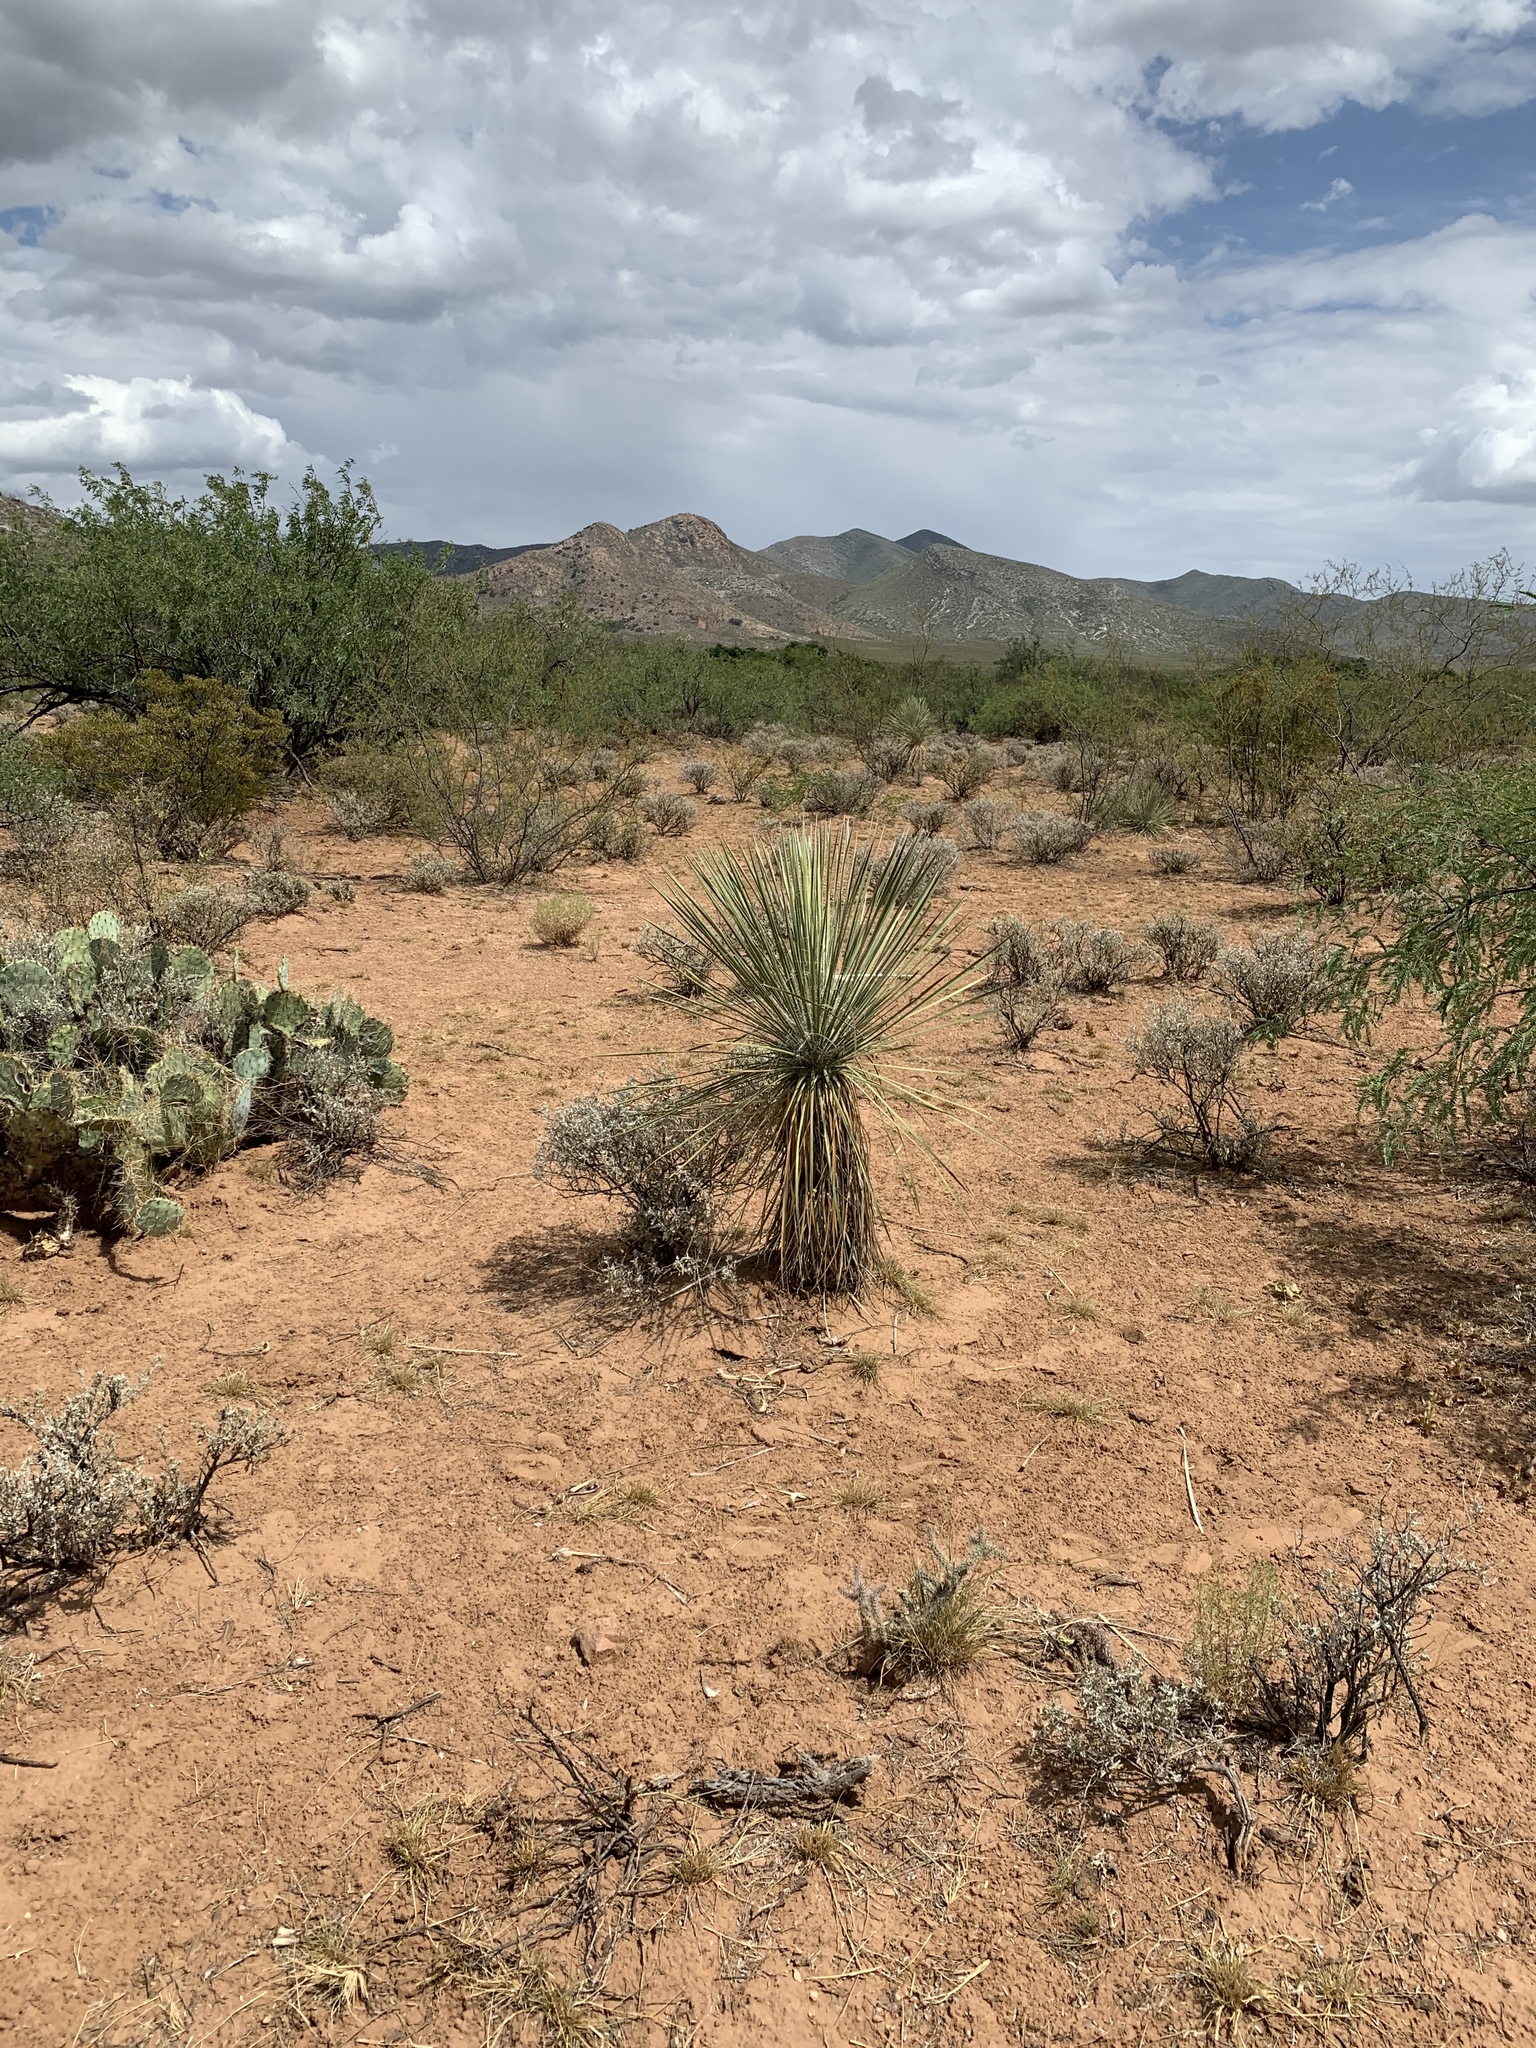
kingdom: Plantae
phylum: Tracheophyta
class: Liliopsida
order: Asparagales
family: Asparagaceae
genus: Yucca
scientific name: Yucca elata
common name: Palmella
